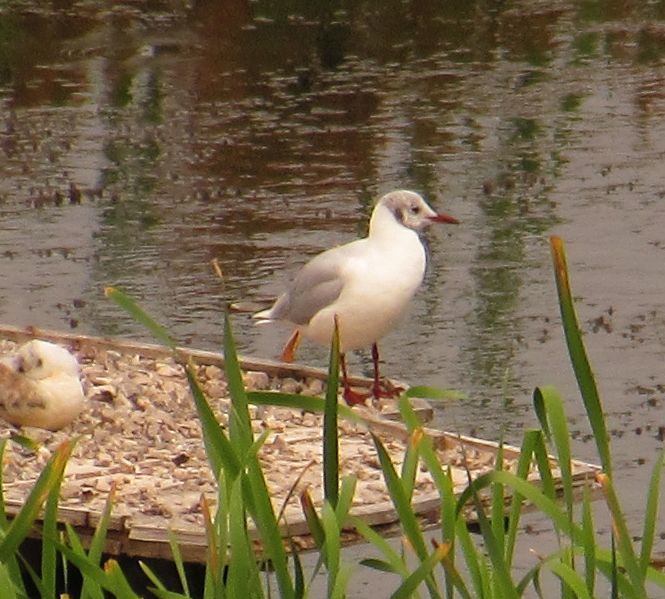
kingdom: Animalia
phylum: Chordata
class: Aves
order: Charadriiformes
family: Laridae
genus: Chroicocephalus
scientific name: Chroicocephalus ridibundus
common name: Black-headed gull
